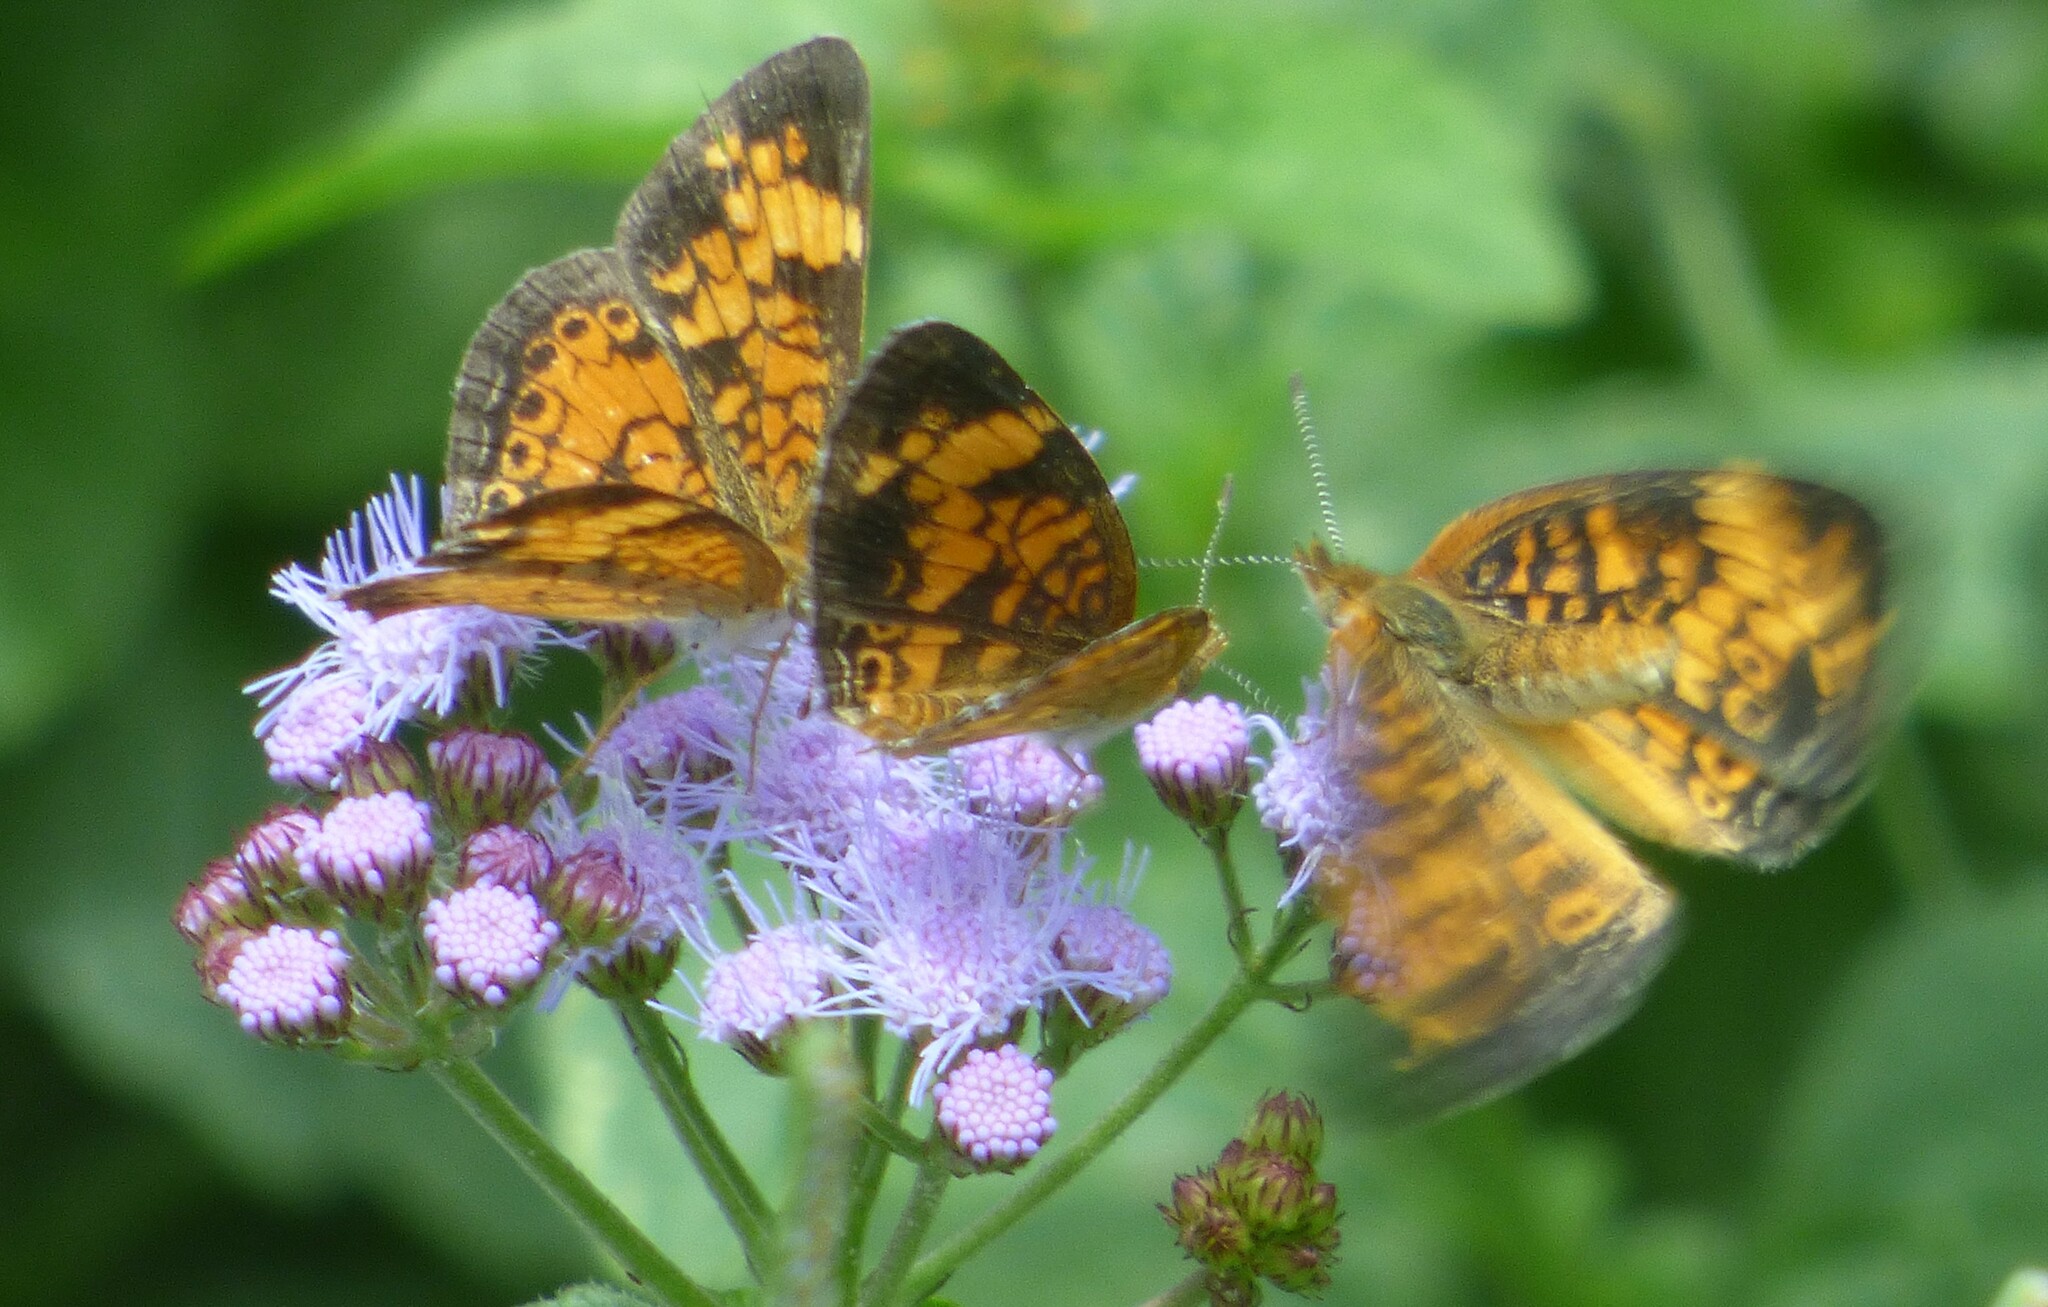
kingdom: Animalia
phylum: Arthropoda
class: Insecta
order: Lepidoptera
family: Nymphalidae
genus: Phyciodes
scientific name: Phyciodes tharos
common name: Pearl crescent
